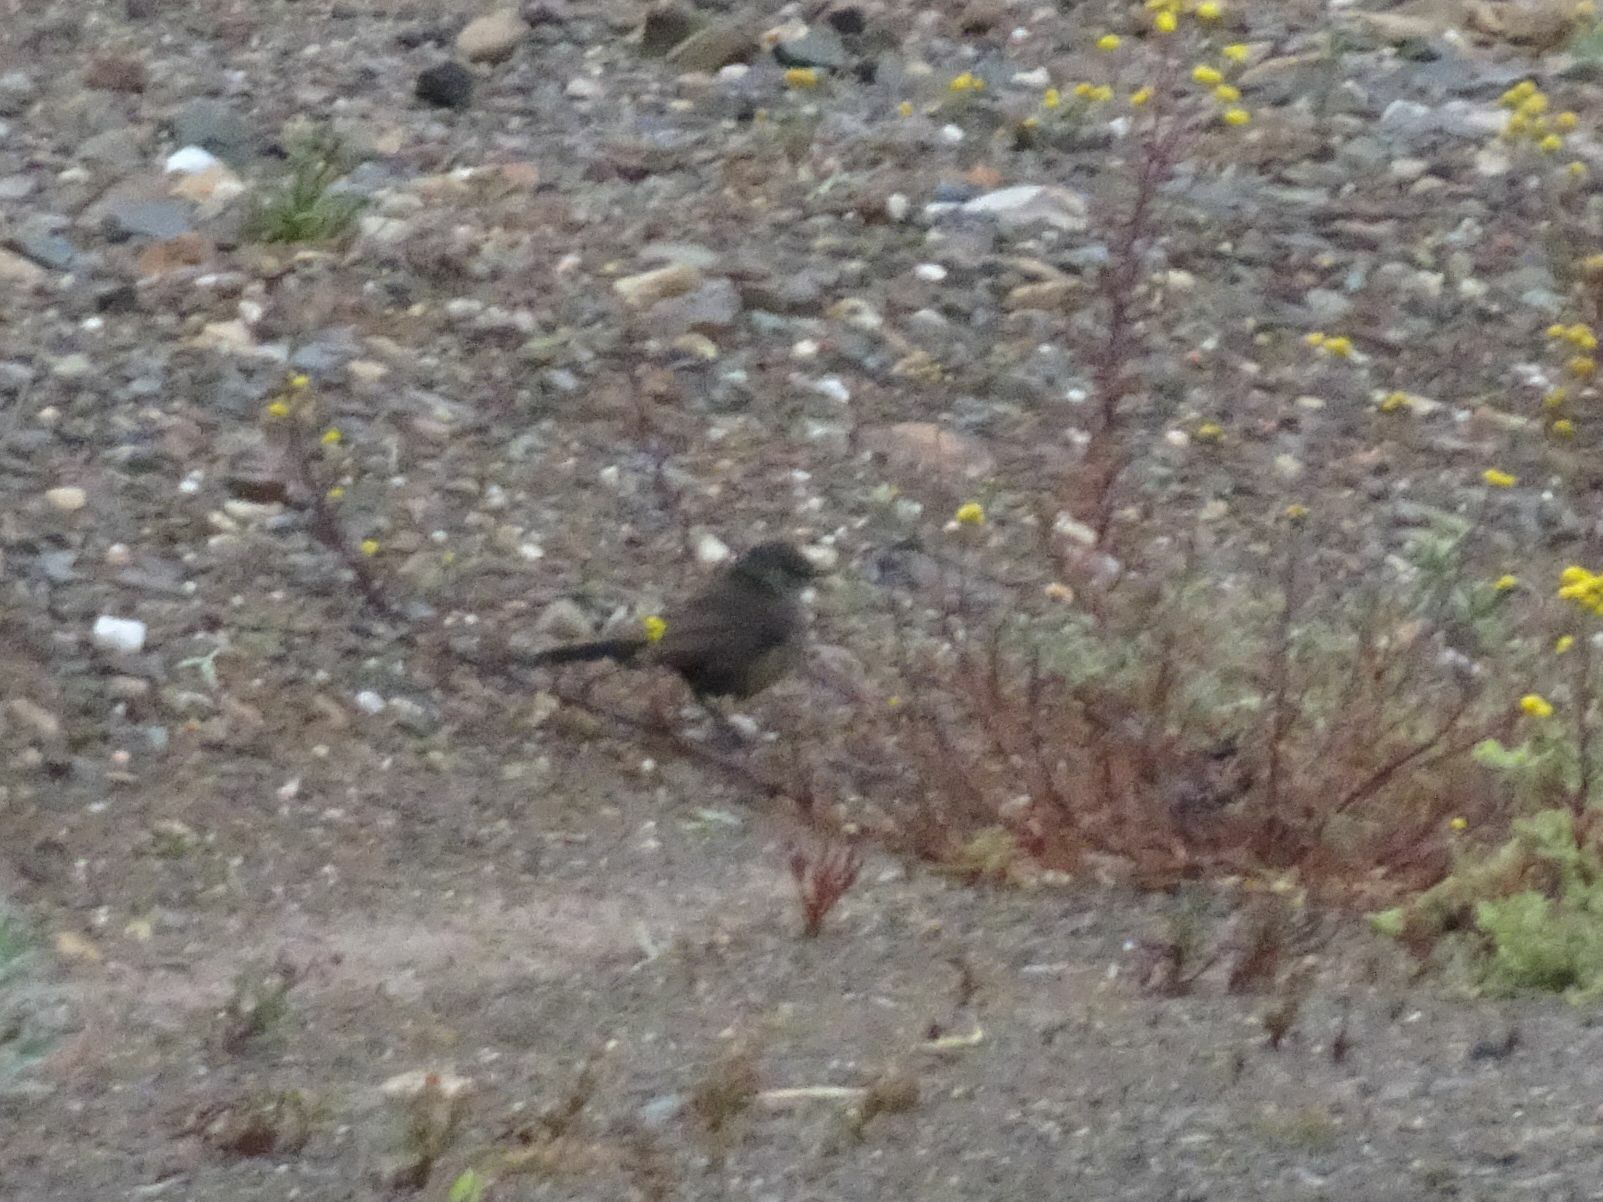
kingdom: Animalia
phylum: Chordata
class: Aves
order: Passeriformes
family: Muscicapidae
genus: Erythropygia
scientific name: Erythropygia coryphoeus
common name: Karoo scrub robin
